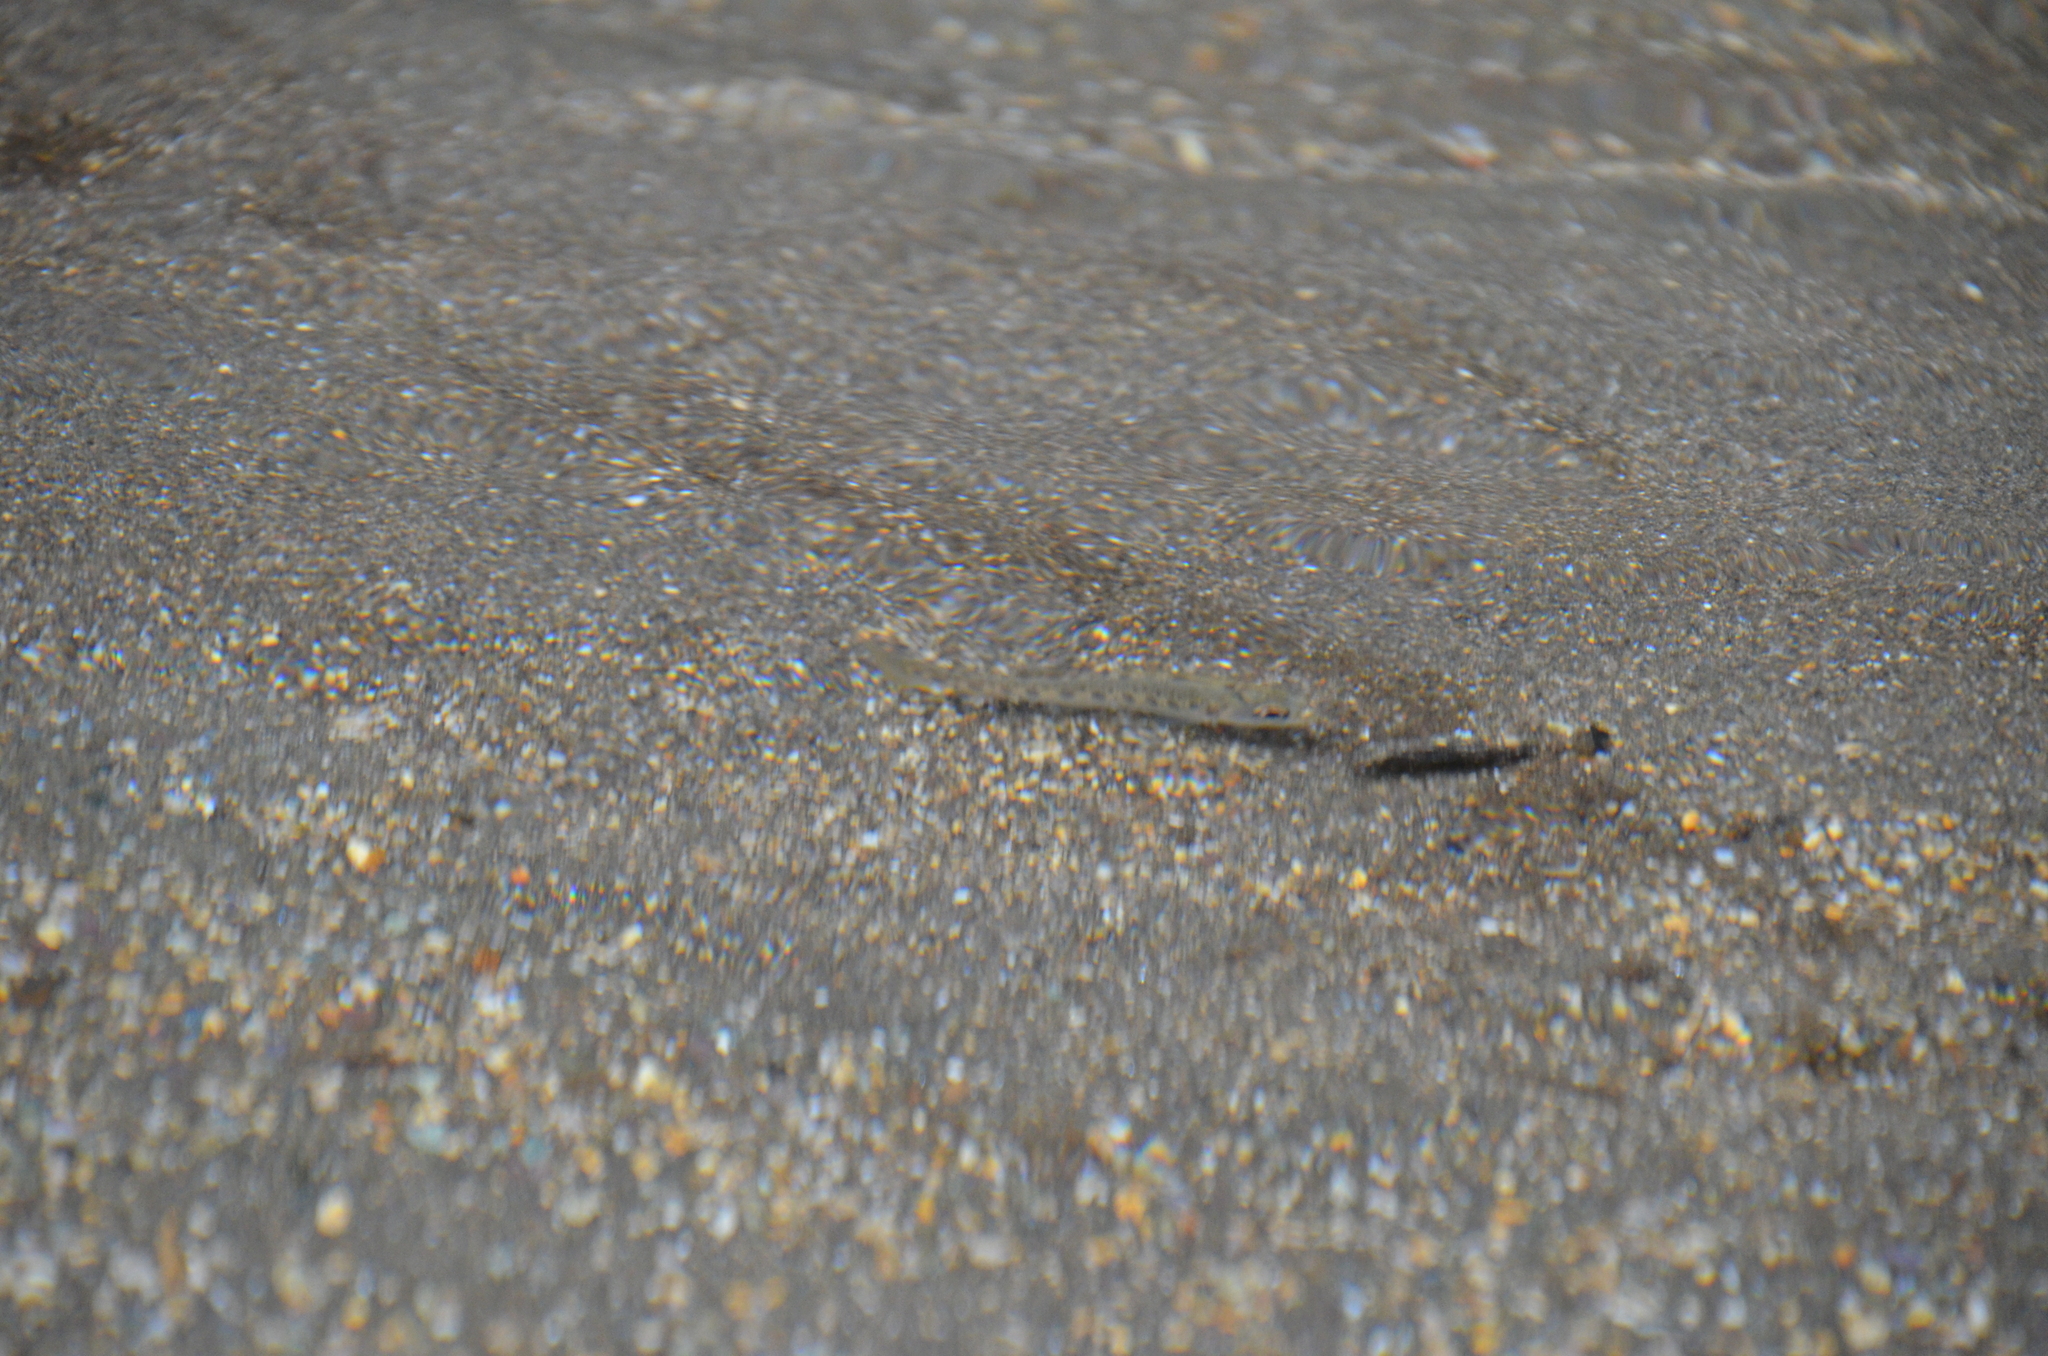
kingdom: Animalia
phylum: Chordata
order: Salmoniformes
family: Salmonidae
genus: Oncorhynchus
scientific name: Oncorhynchus mykiss
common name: Rainbow trout
